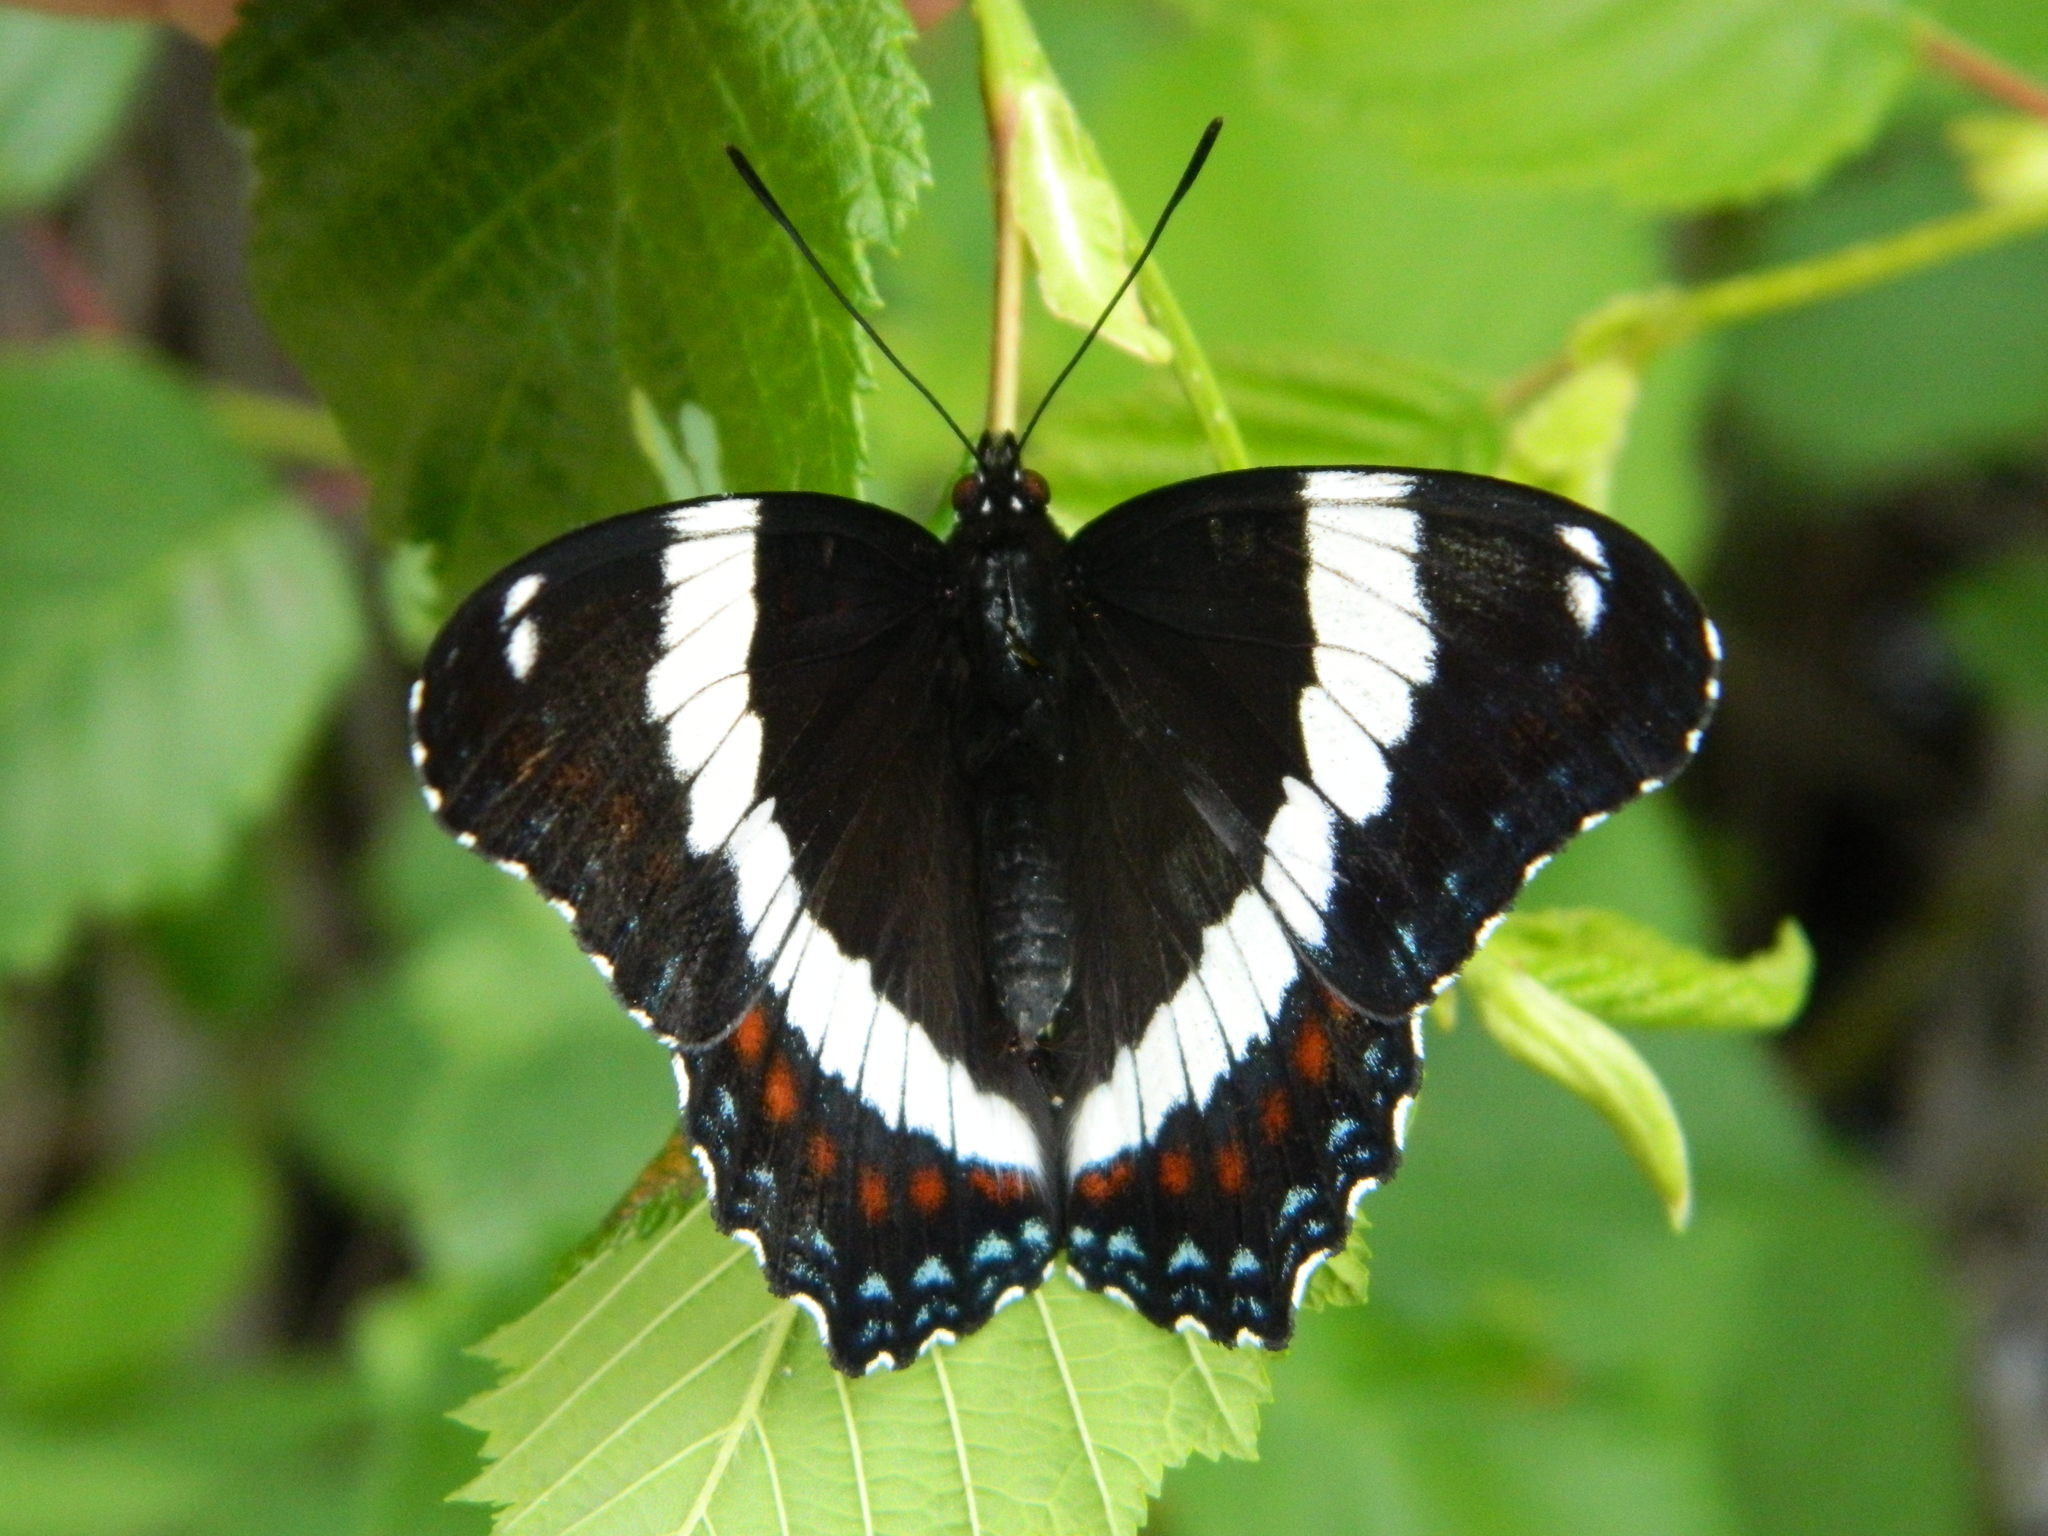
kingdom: Animalia
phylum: Arthropoda
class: Insecta
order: Lepidoptera
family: Nymphalidae
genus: Limenitis
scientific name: Limenitis arthemis
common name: Red-spotted admiral
